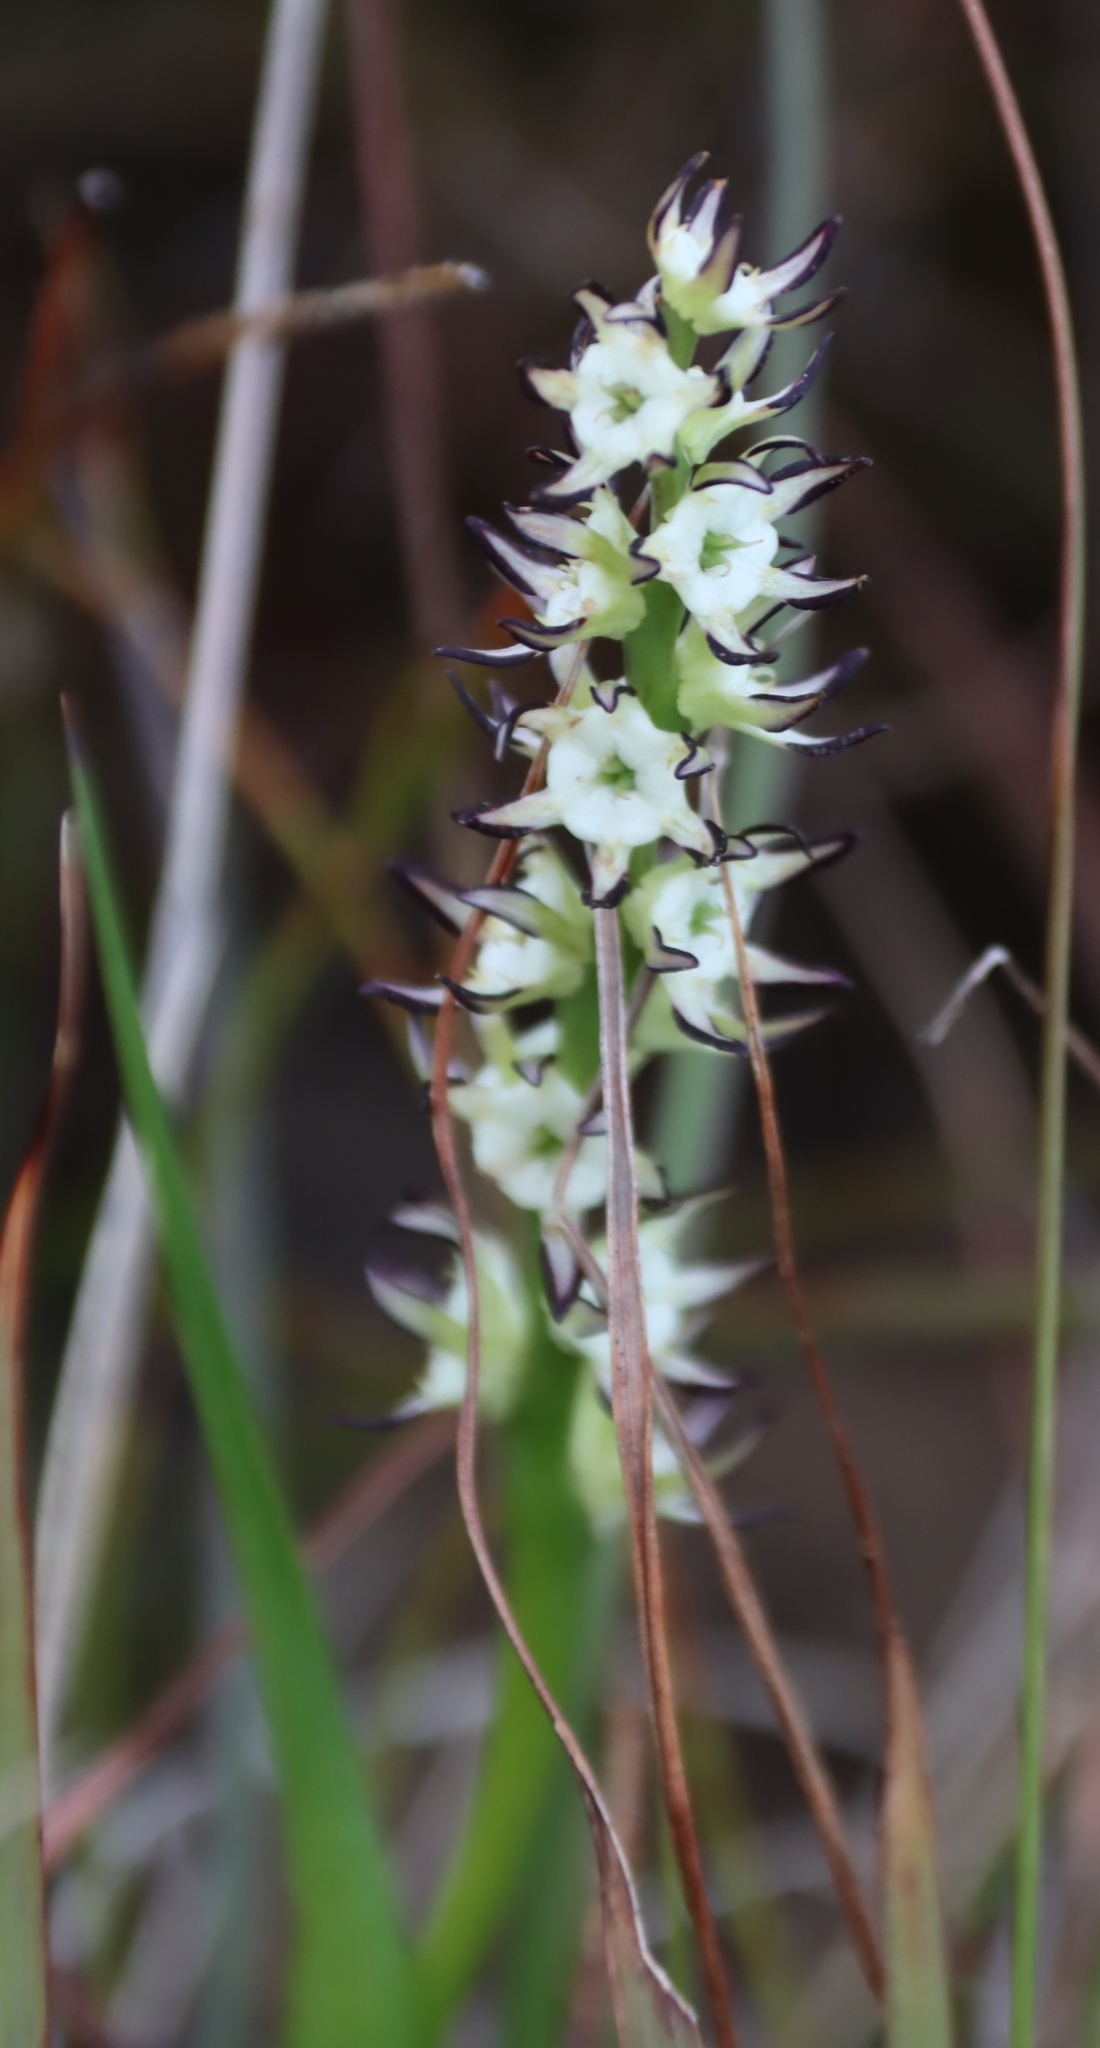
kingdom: Plantae
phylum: Tracheophyta
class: Liliopsida
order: Liliales
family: Colchicaceae
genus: Wurmbea
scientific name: Wurmbea spicata
